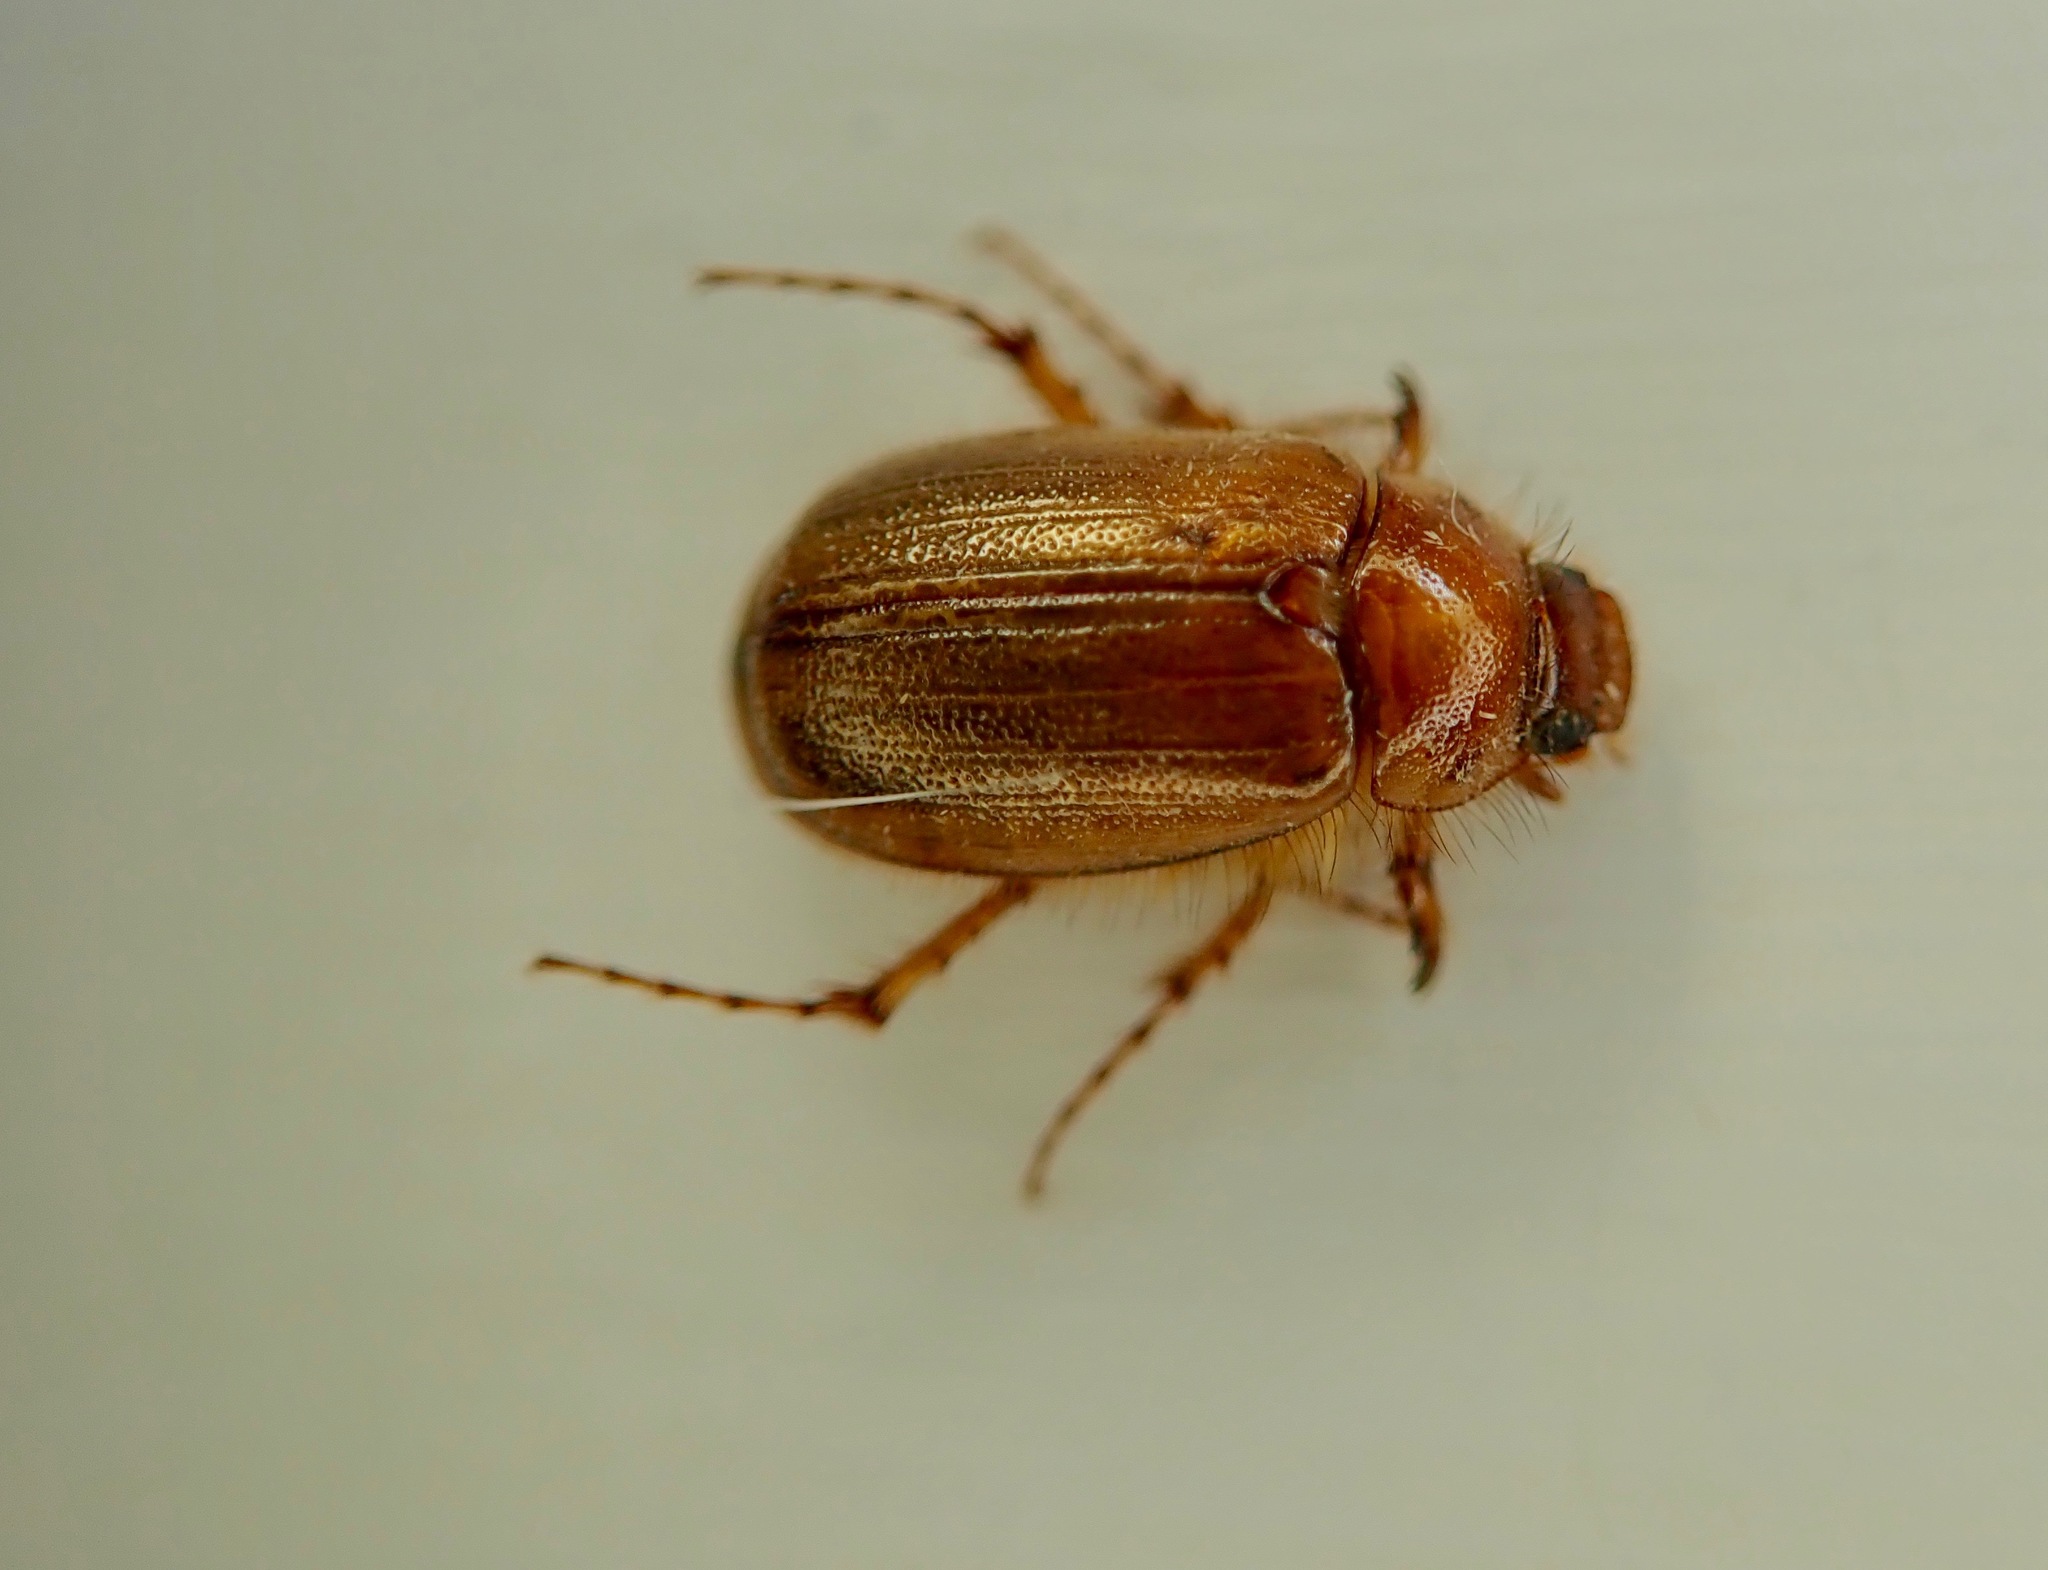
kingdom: Animalia
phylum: Arthropoda
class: Insecta
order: Coleoptera
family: Scarabaeidae
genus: Costelytra
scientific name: Costelytra zealandica
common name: New zealand grass grub
